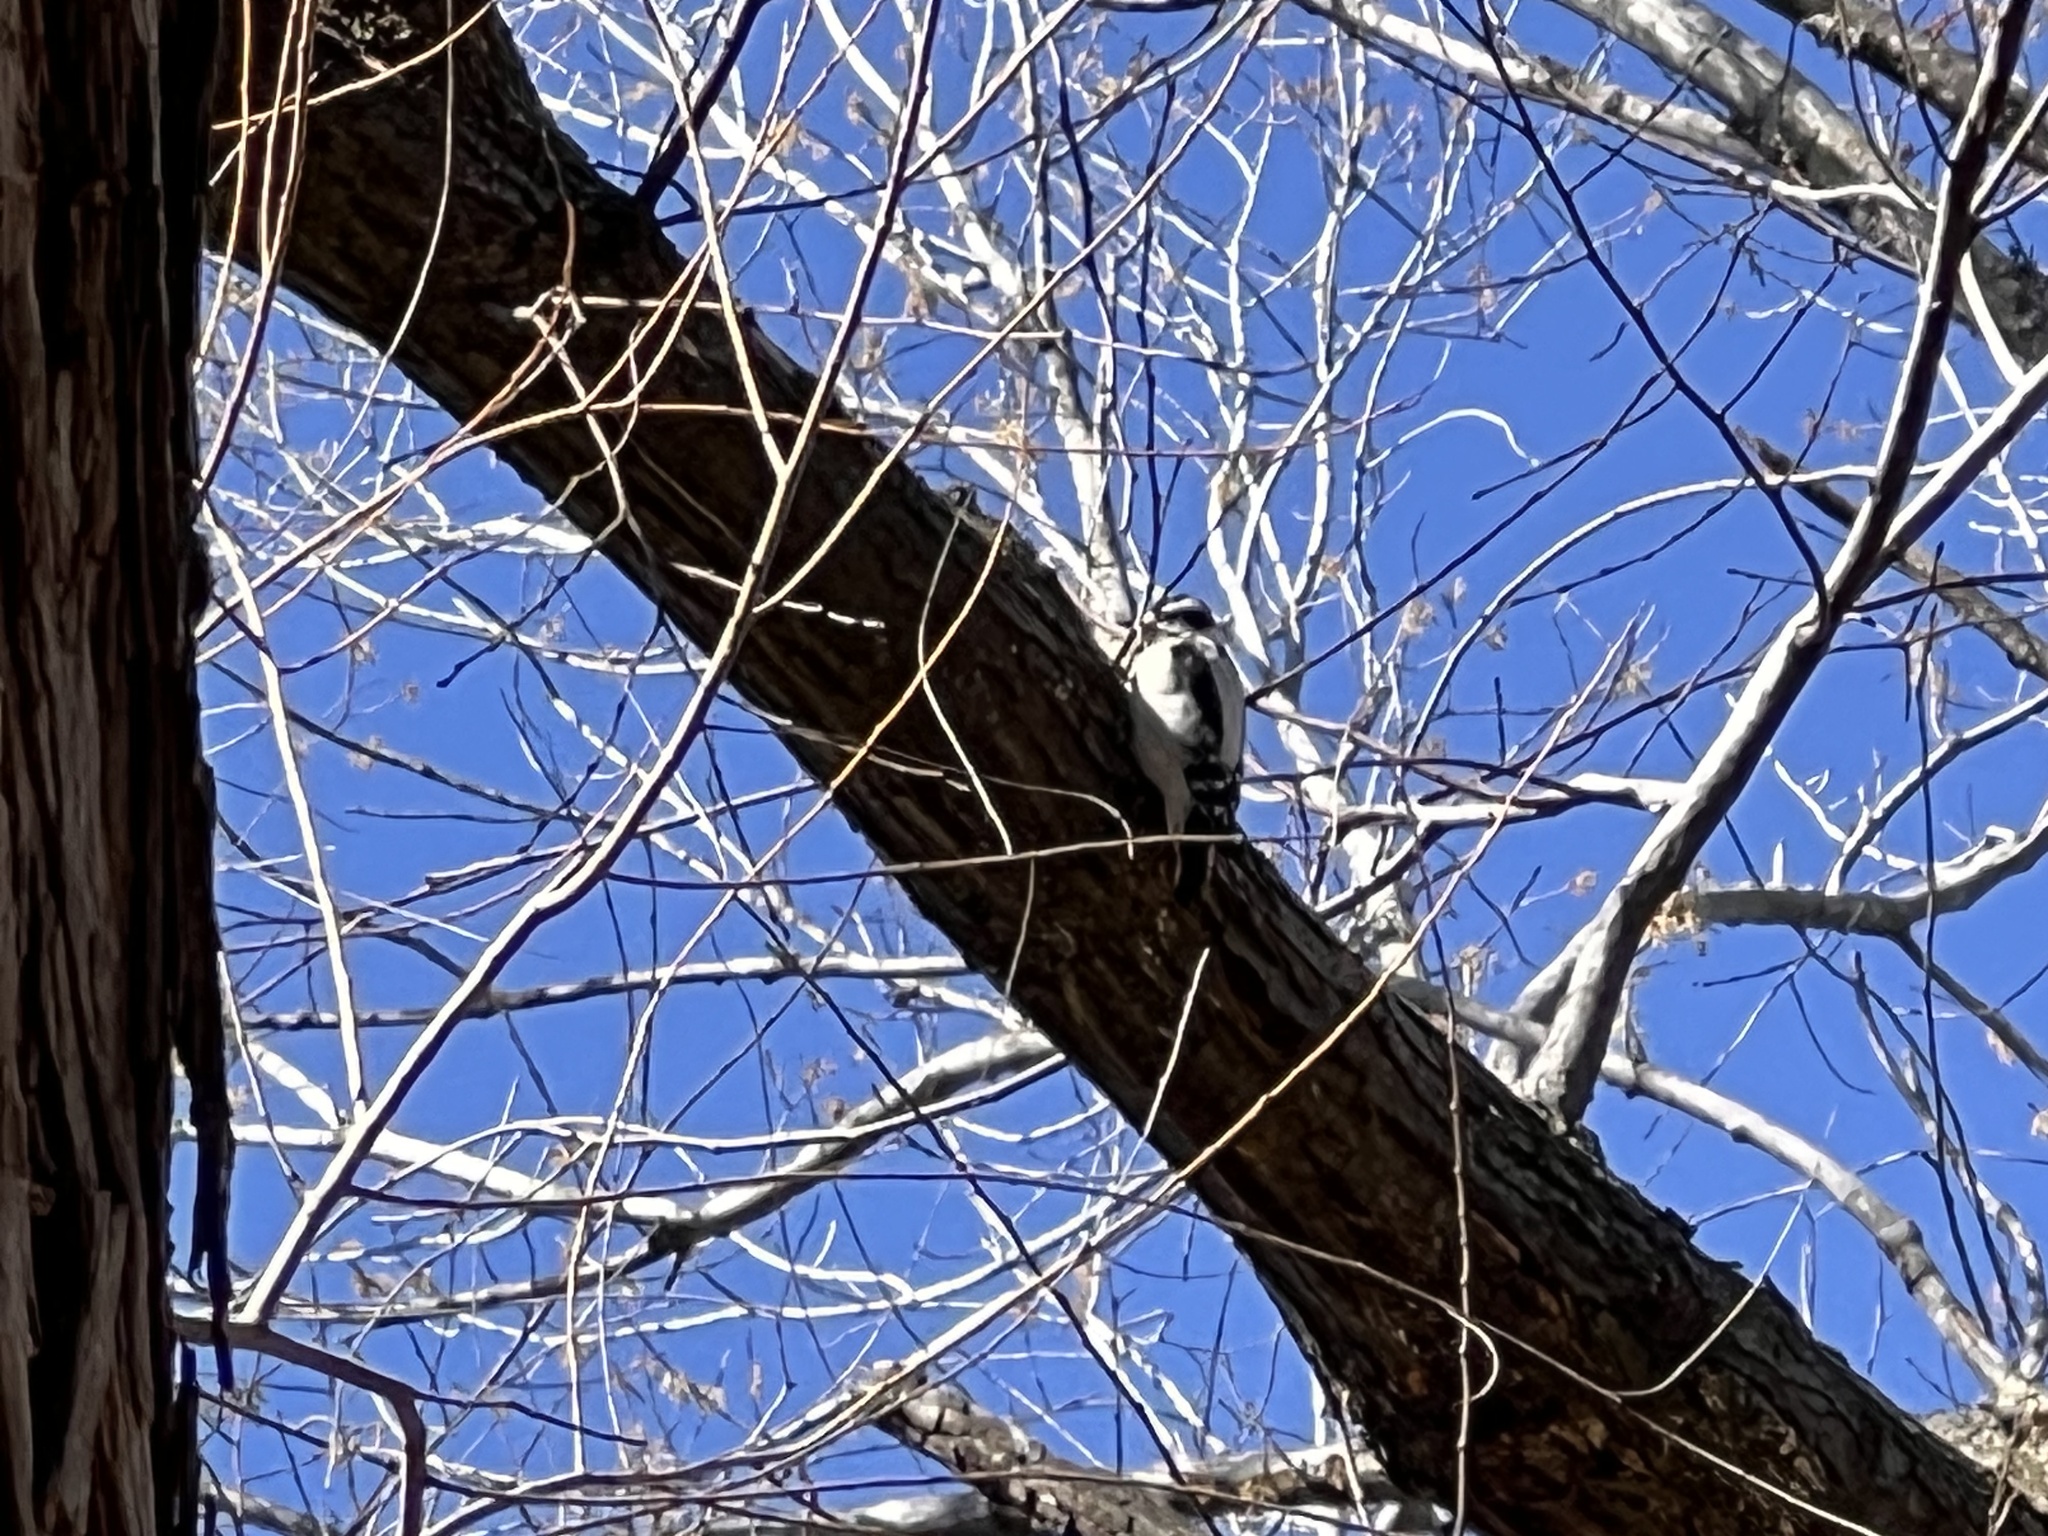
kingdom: Animalia
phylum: Chordata
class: Aves
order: Piciformes
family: Picidae
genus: Dryobates
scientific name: Dryobates pubescens
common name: Downy woodpecker
